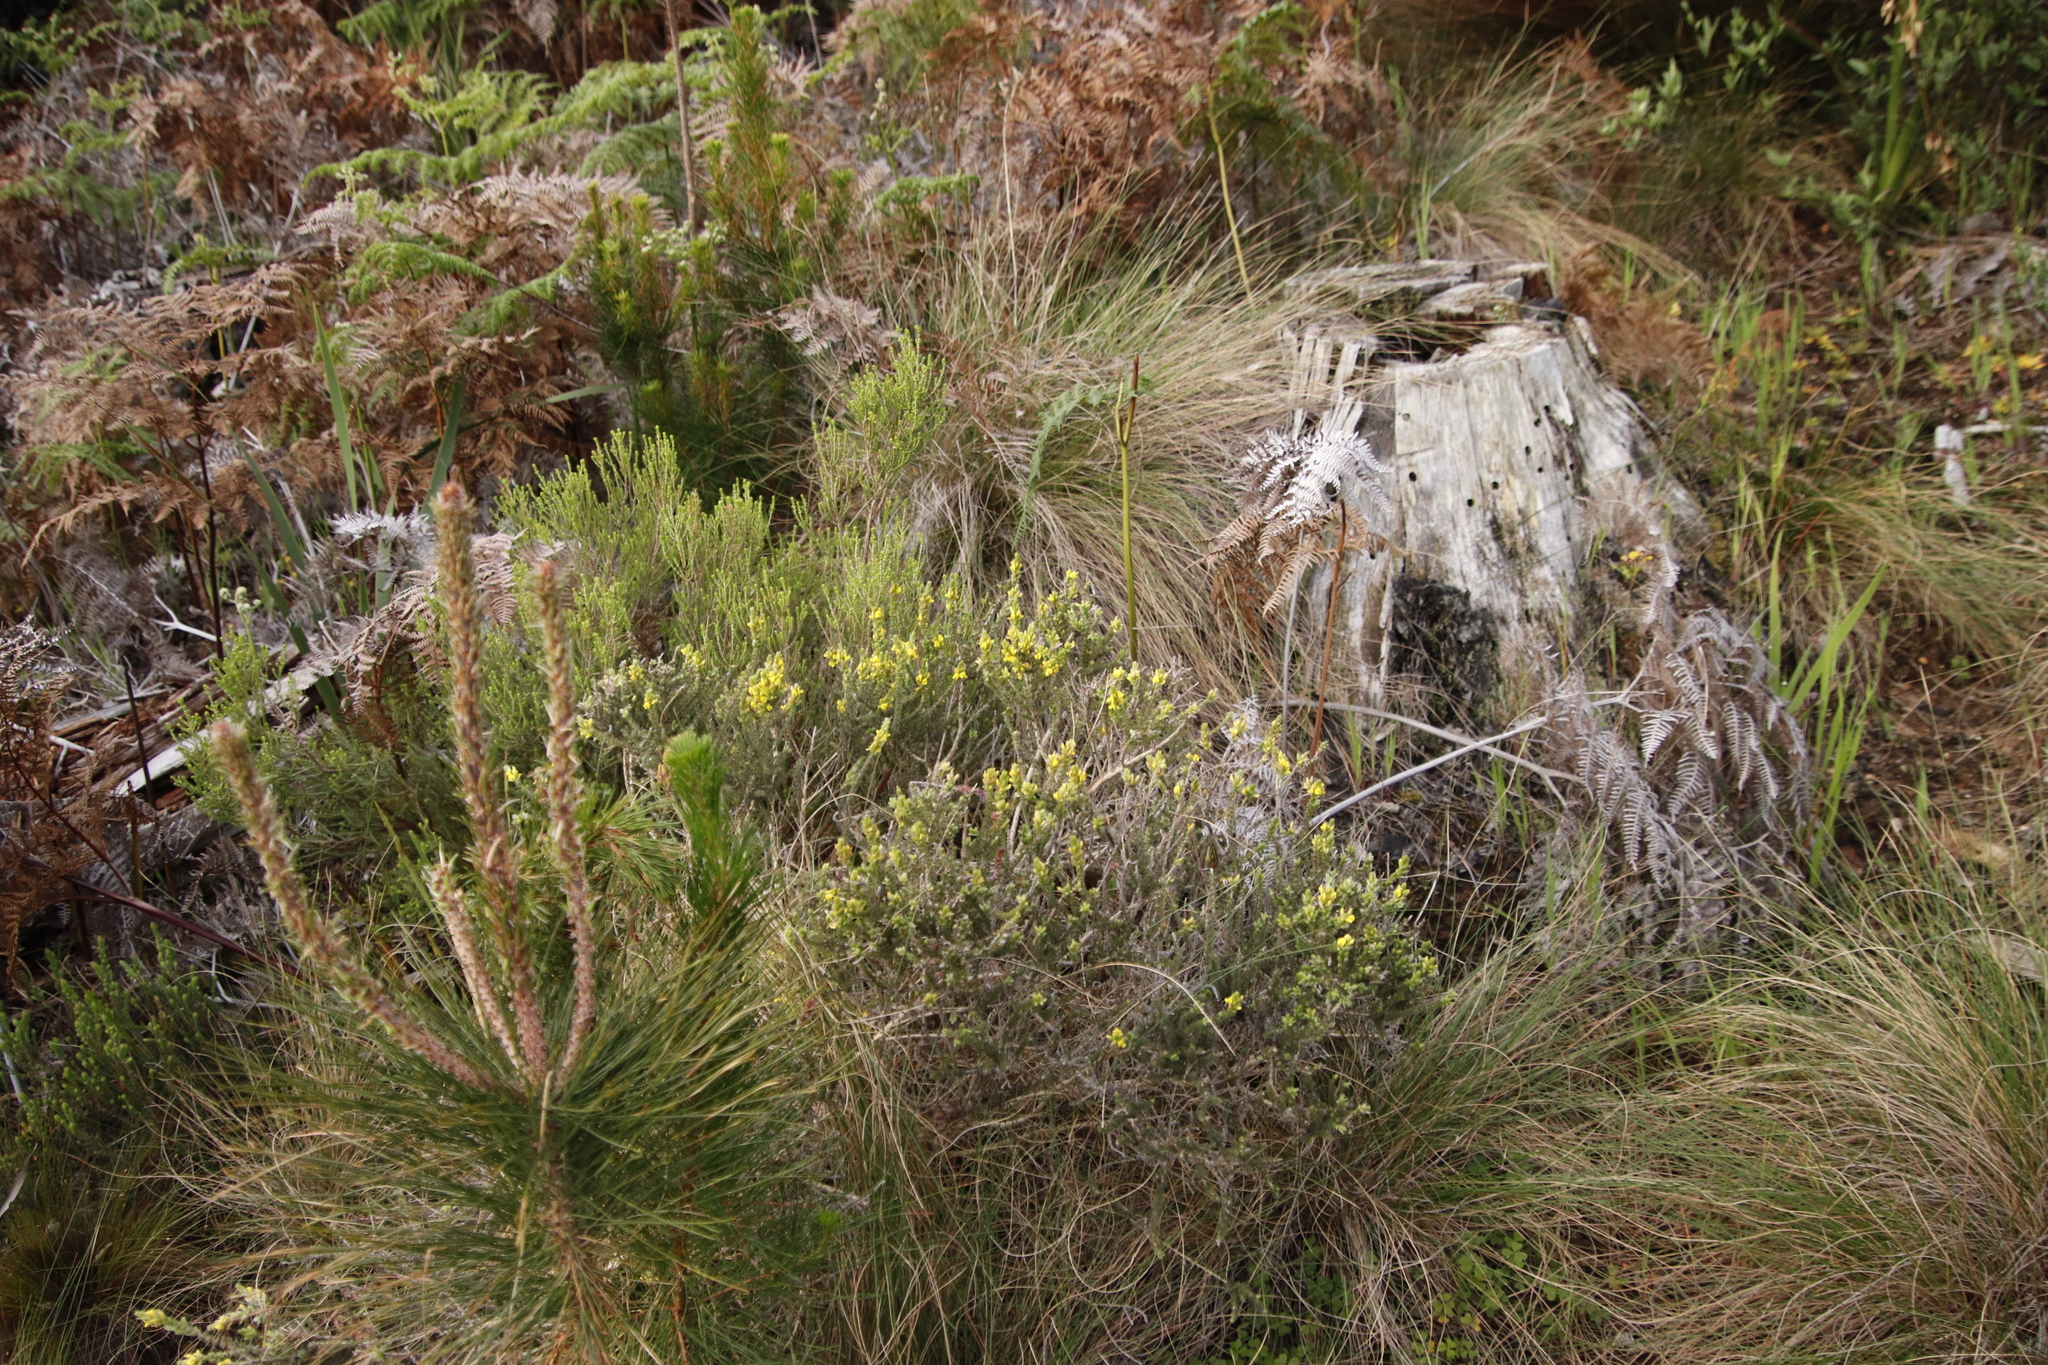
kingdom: Plantae
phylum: Tracheophyta
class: Magnoliopsida
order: Fabales
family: Fabaceae
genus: Aspalathus
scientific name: Aspalathus ericifolia
